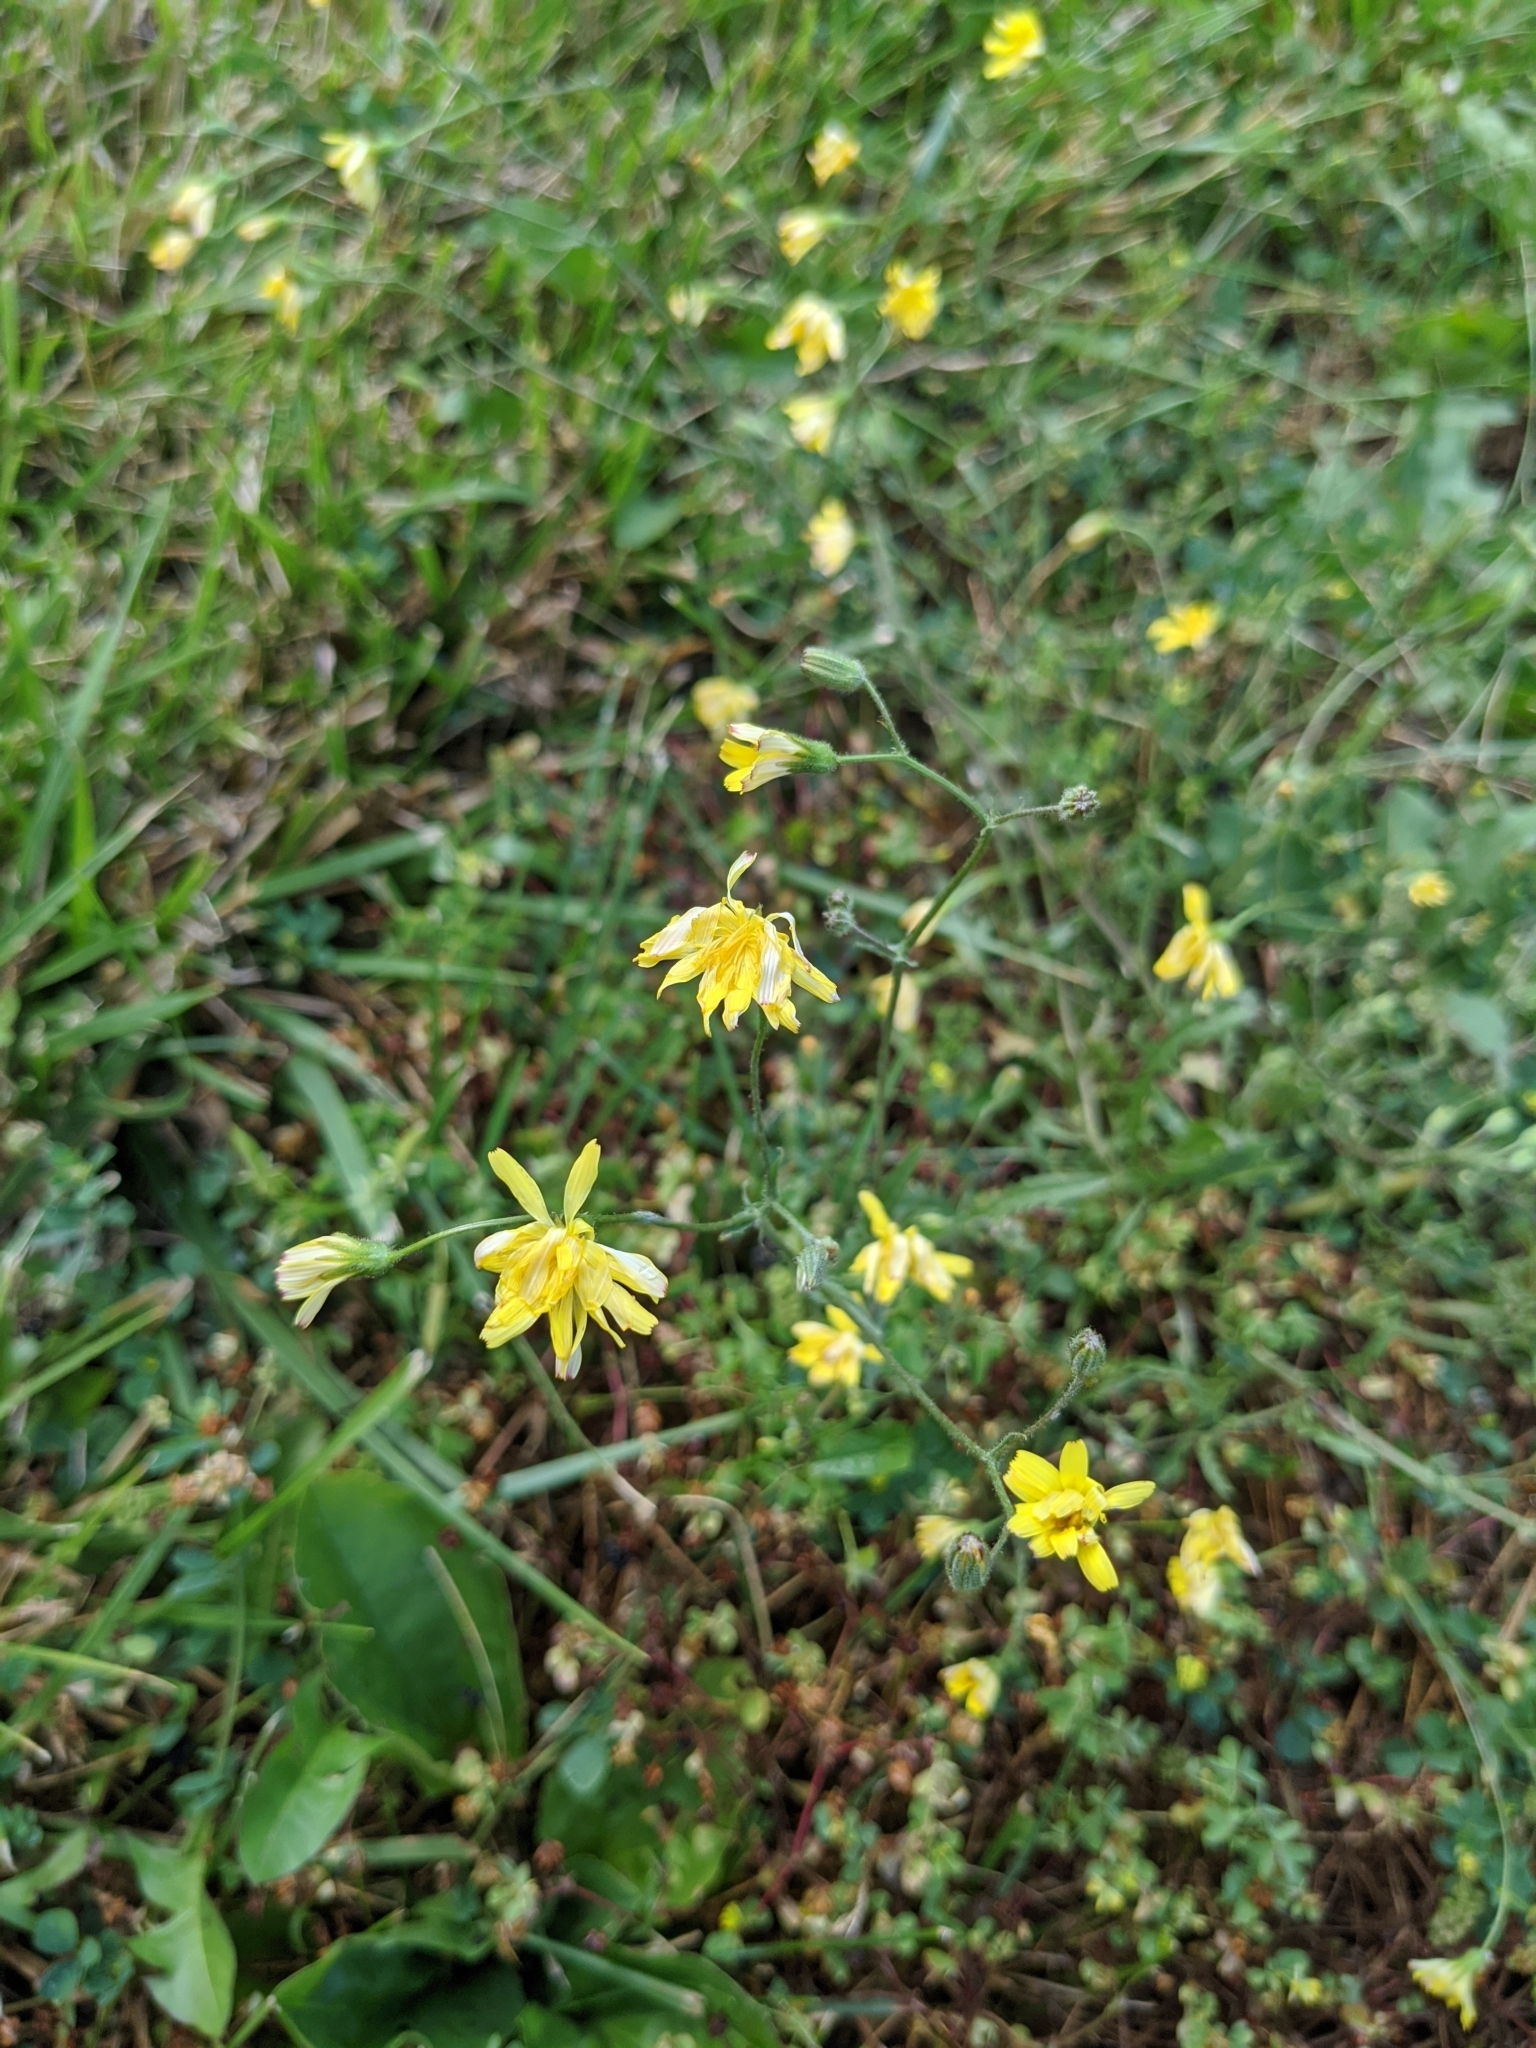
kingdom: Plantae
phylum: Tracheophyta
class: Magnoliopsida
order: Asterales
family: Asteraceae
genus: Lapsana
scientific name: Lapsana communis
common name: Nipplewort
